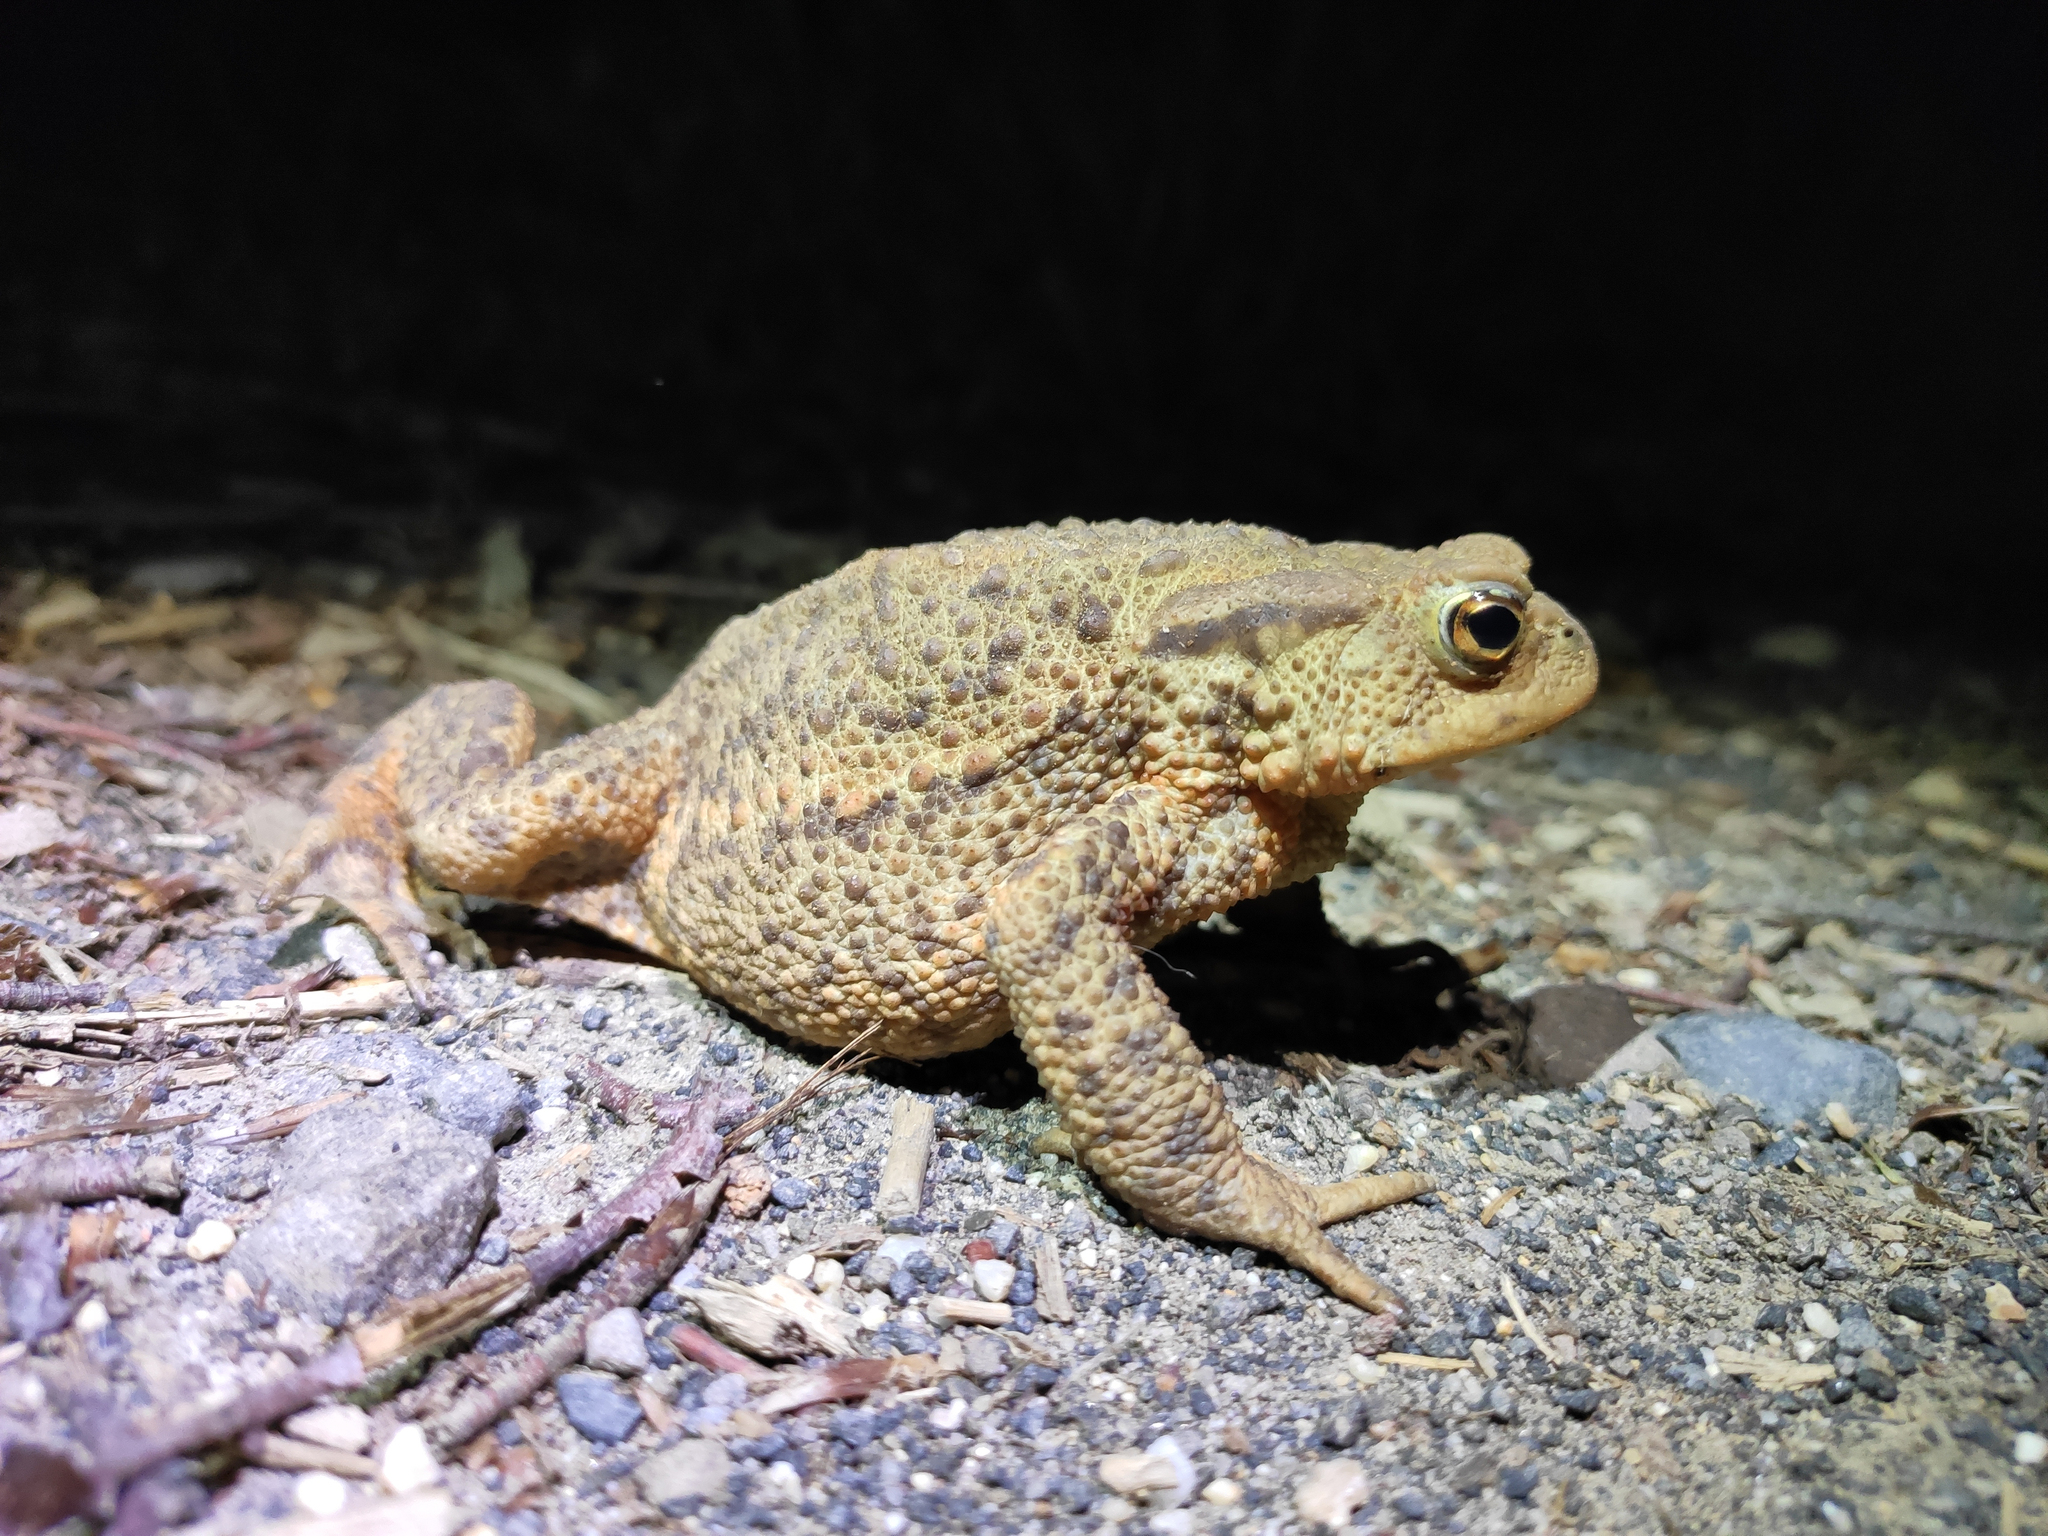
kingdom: Animalia
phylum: Chordata
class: Amphibia
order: Anura
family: Bufonidae
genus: Bufo
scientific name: Bufo bufo
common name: Common toad
